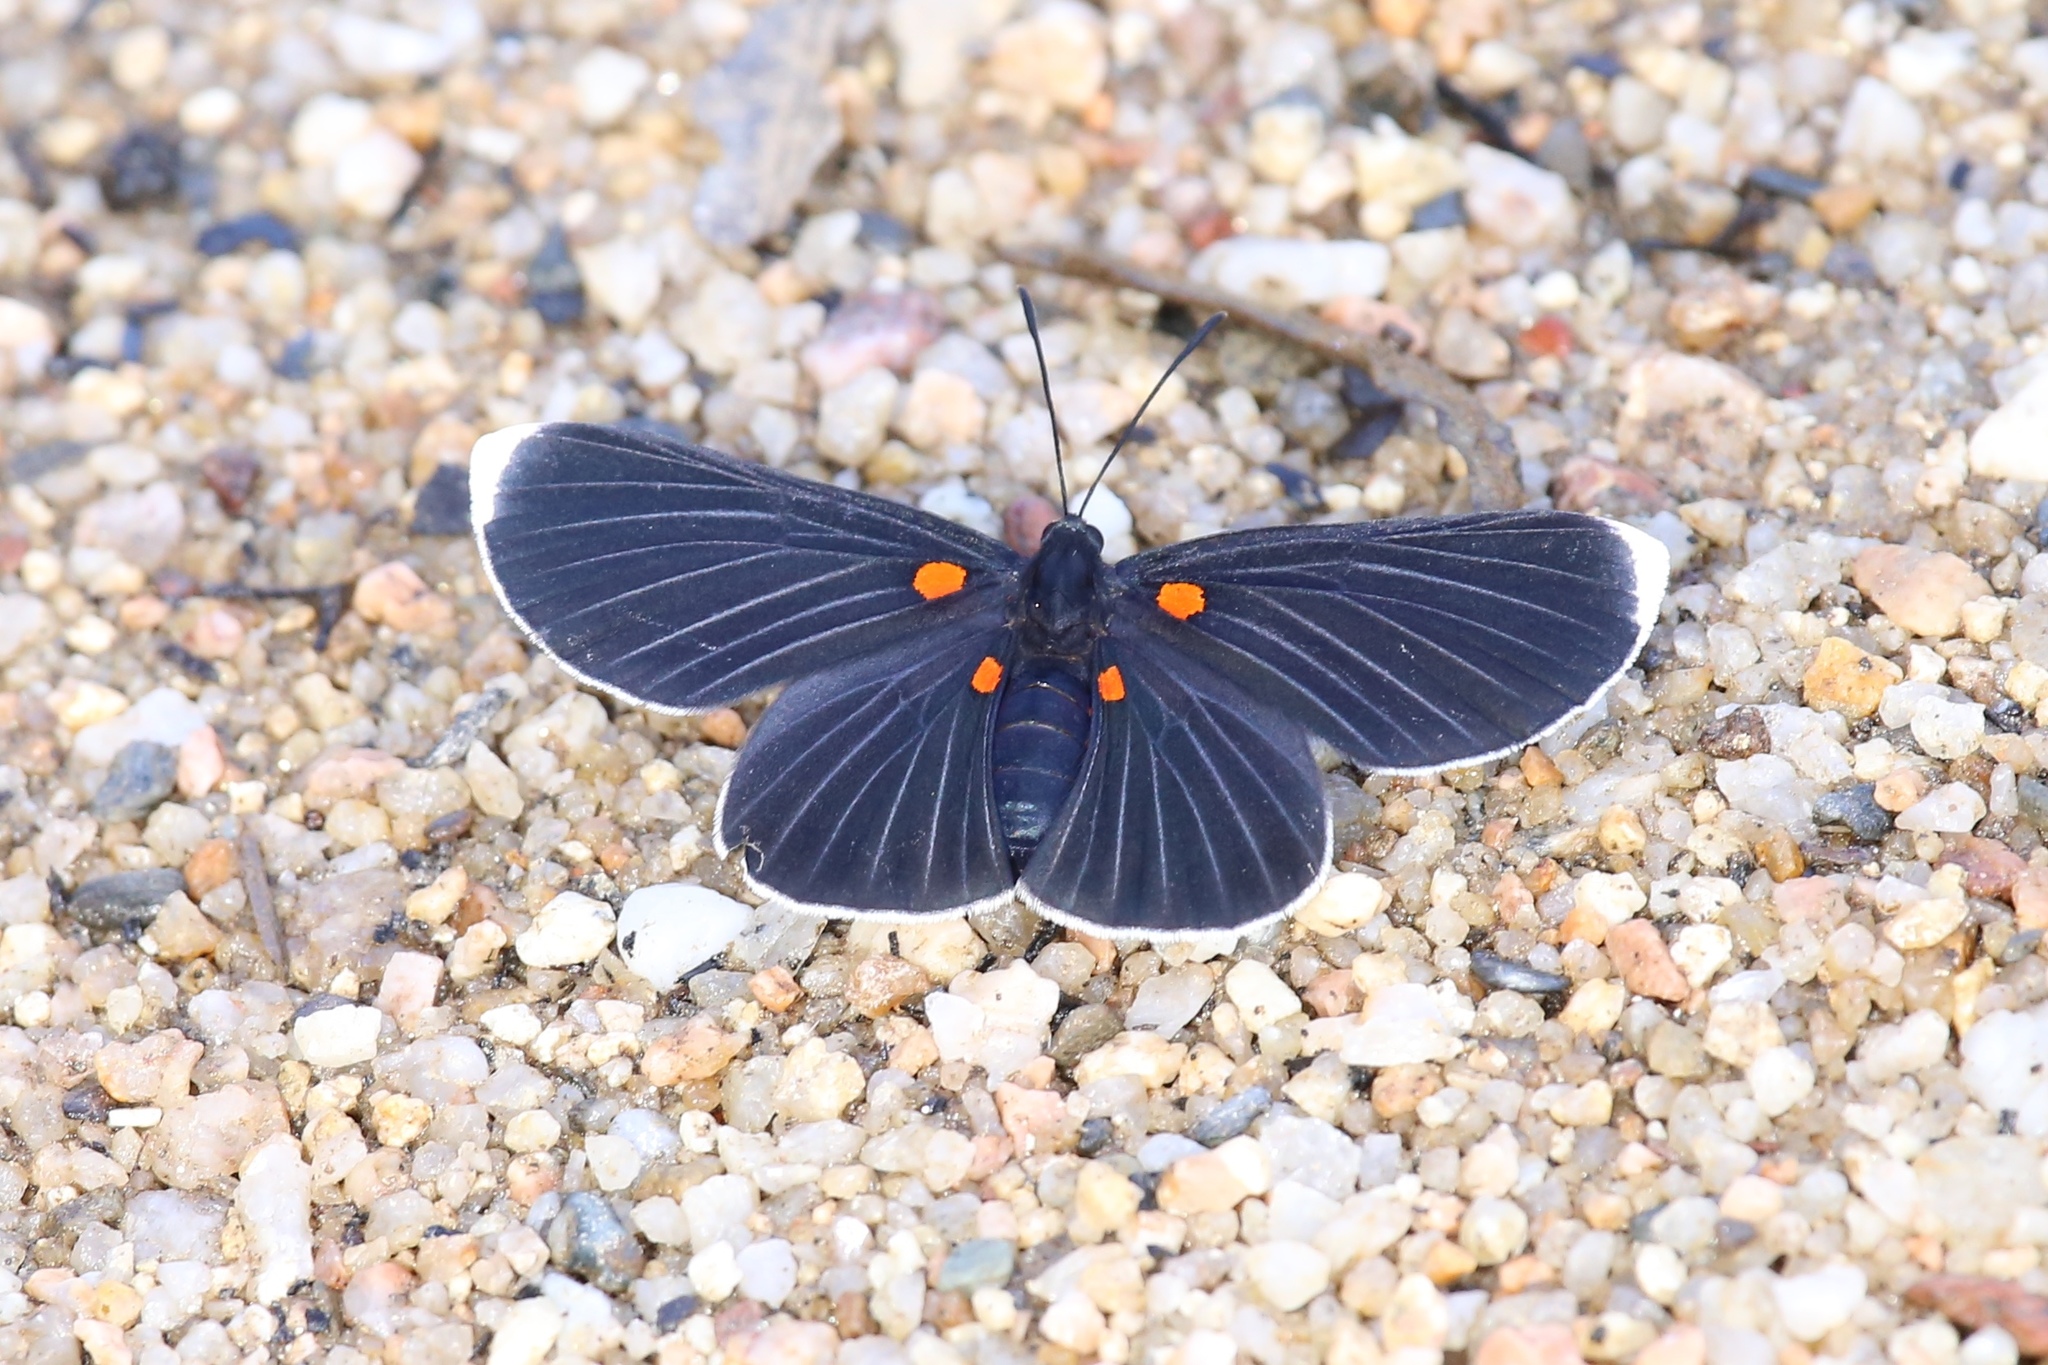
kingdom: Animalia
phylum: Arthropoda
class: Insecta
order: Lepidoptera
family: Lycaenidae
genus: Melanis
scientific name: Melanis
